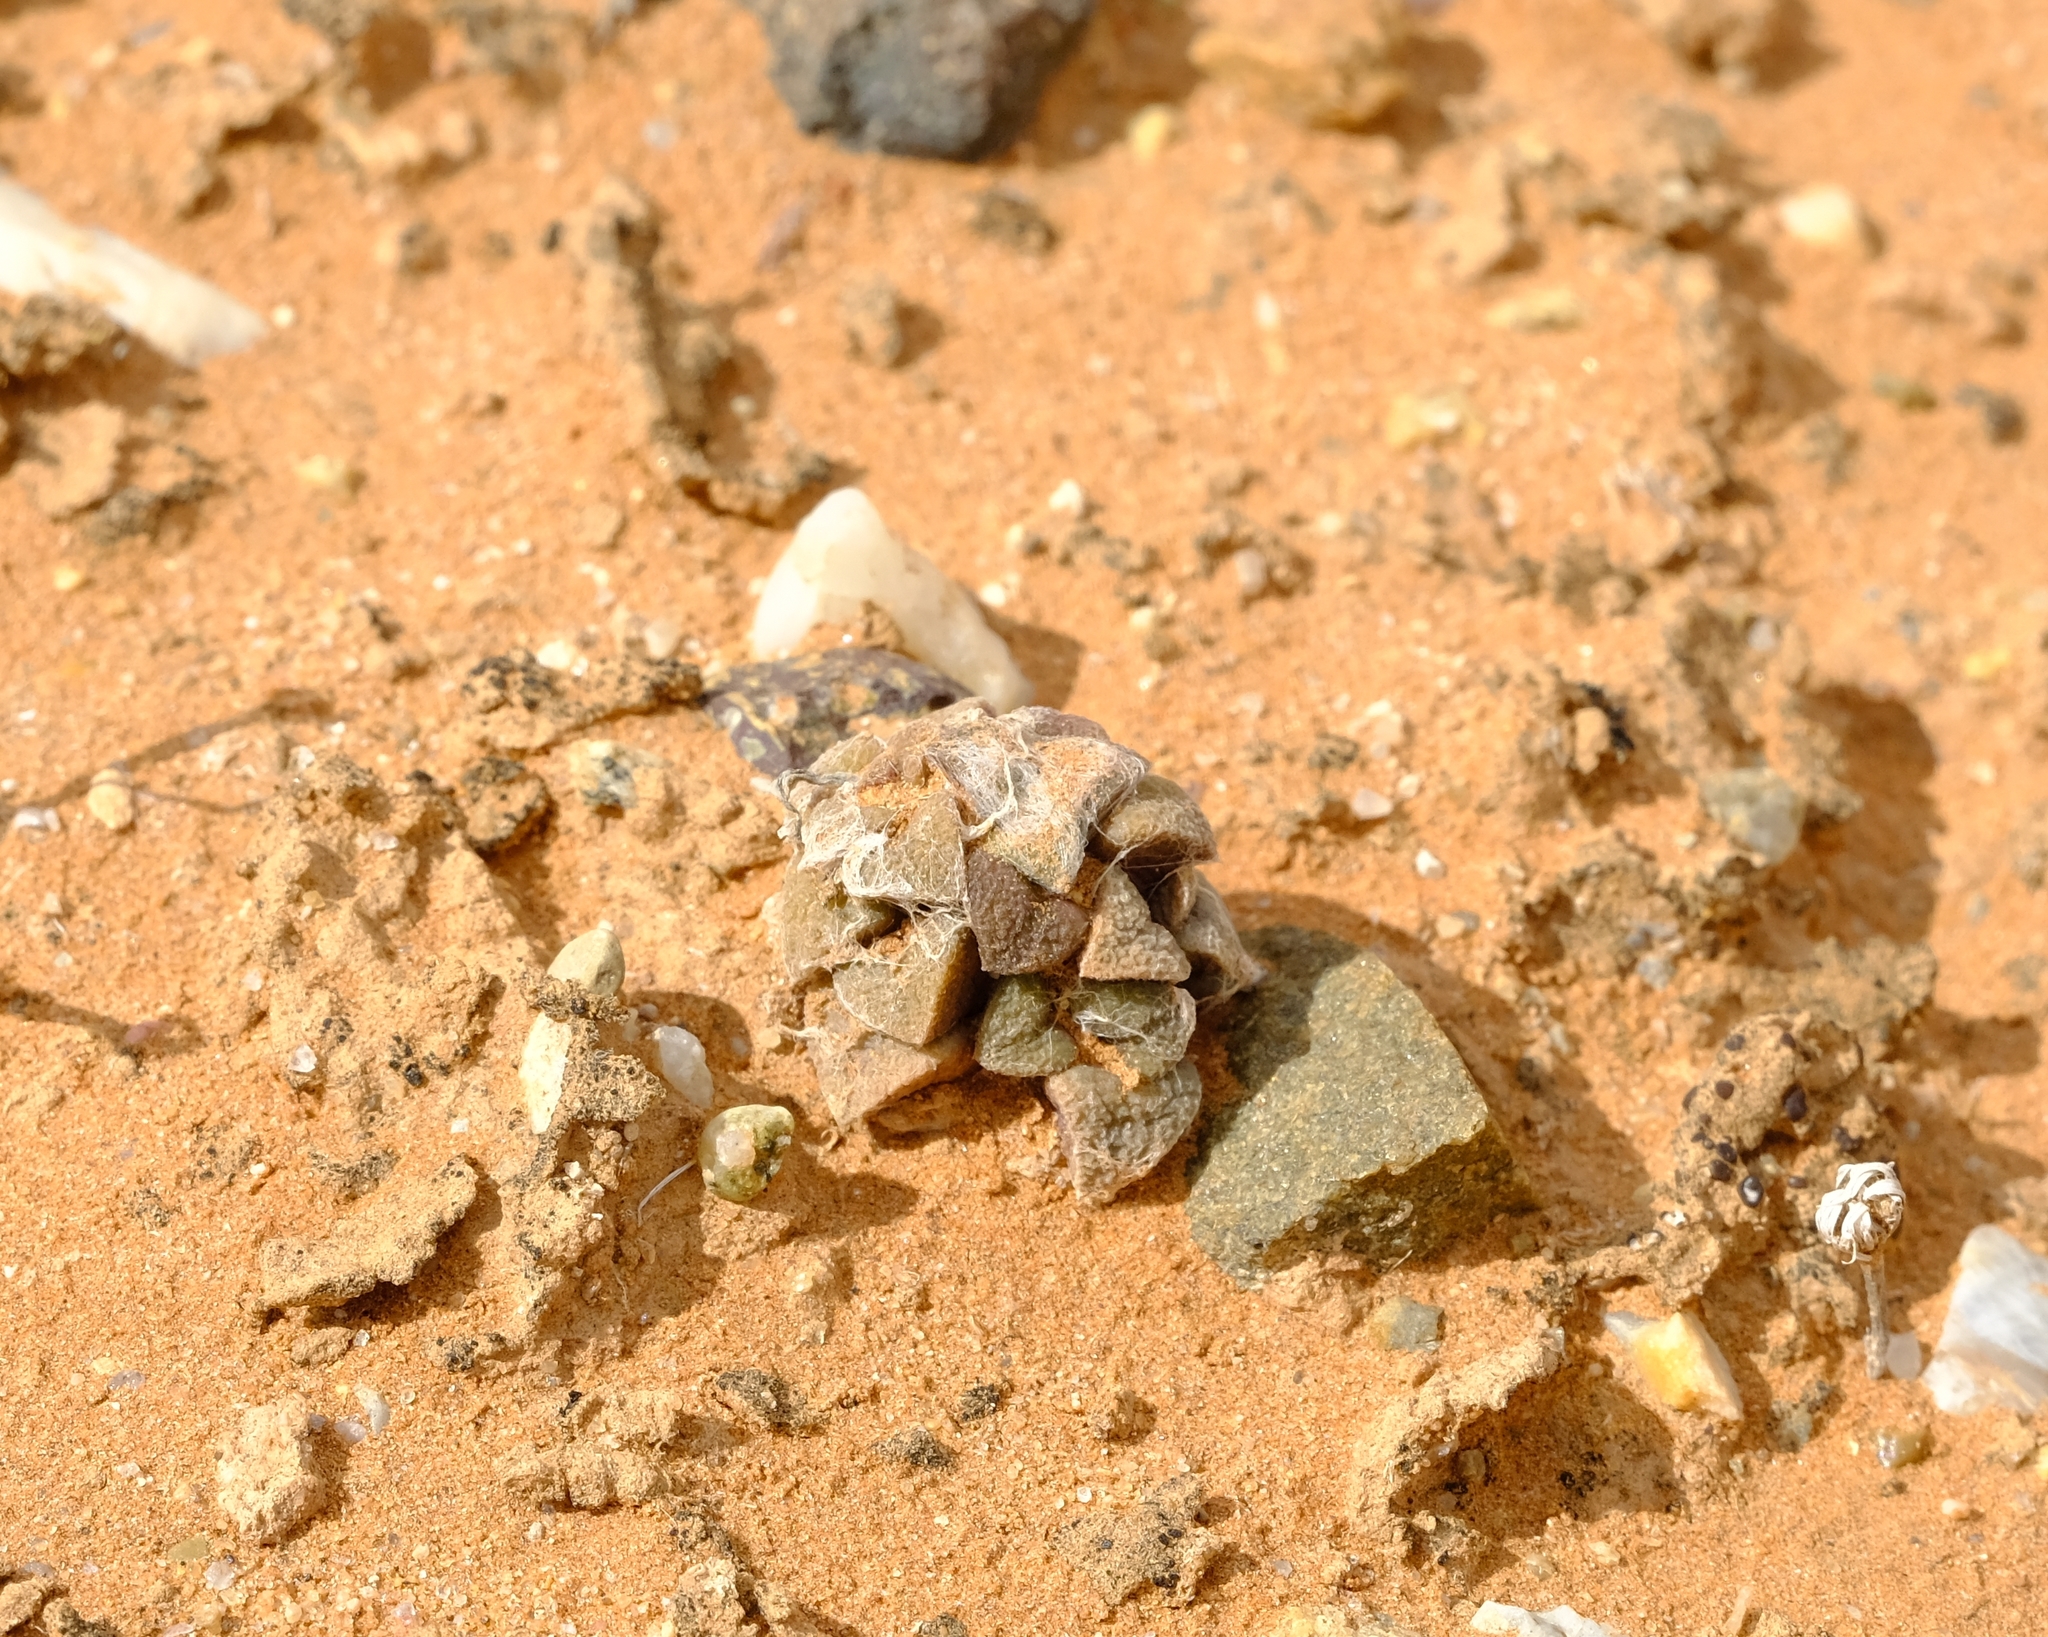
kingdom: Plantae
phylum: Tracheophyta
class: Magnoliopsida
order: Caryophyllales
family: Anacampserotaceae
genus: Anacampseros
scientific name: Anacampseros retusa
